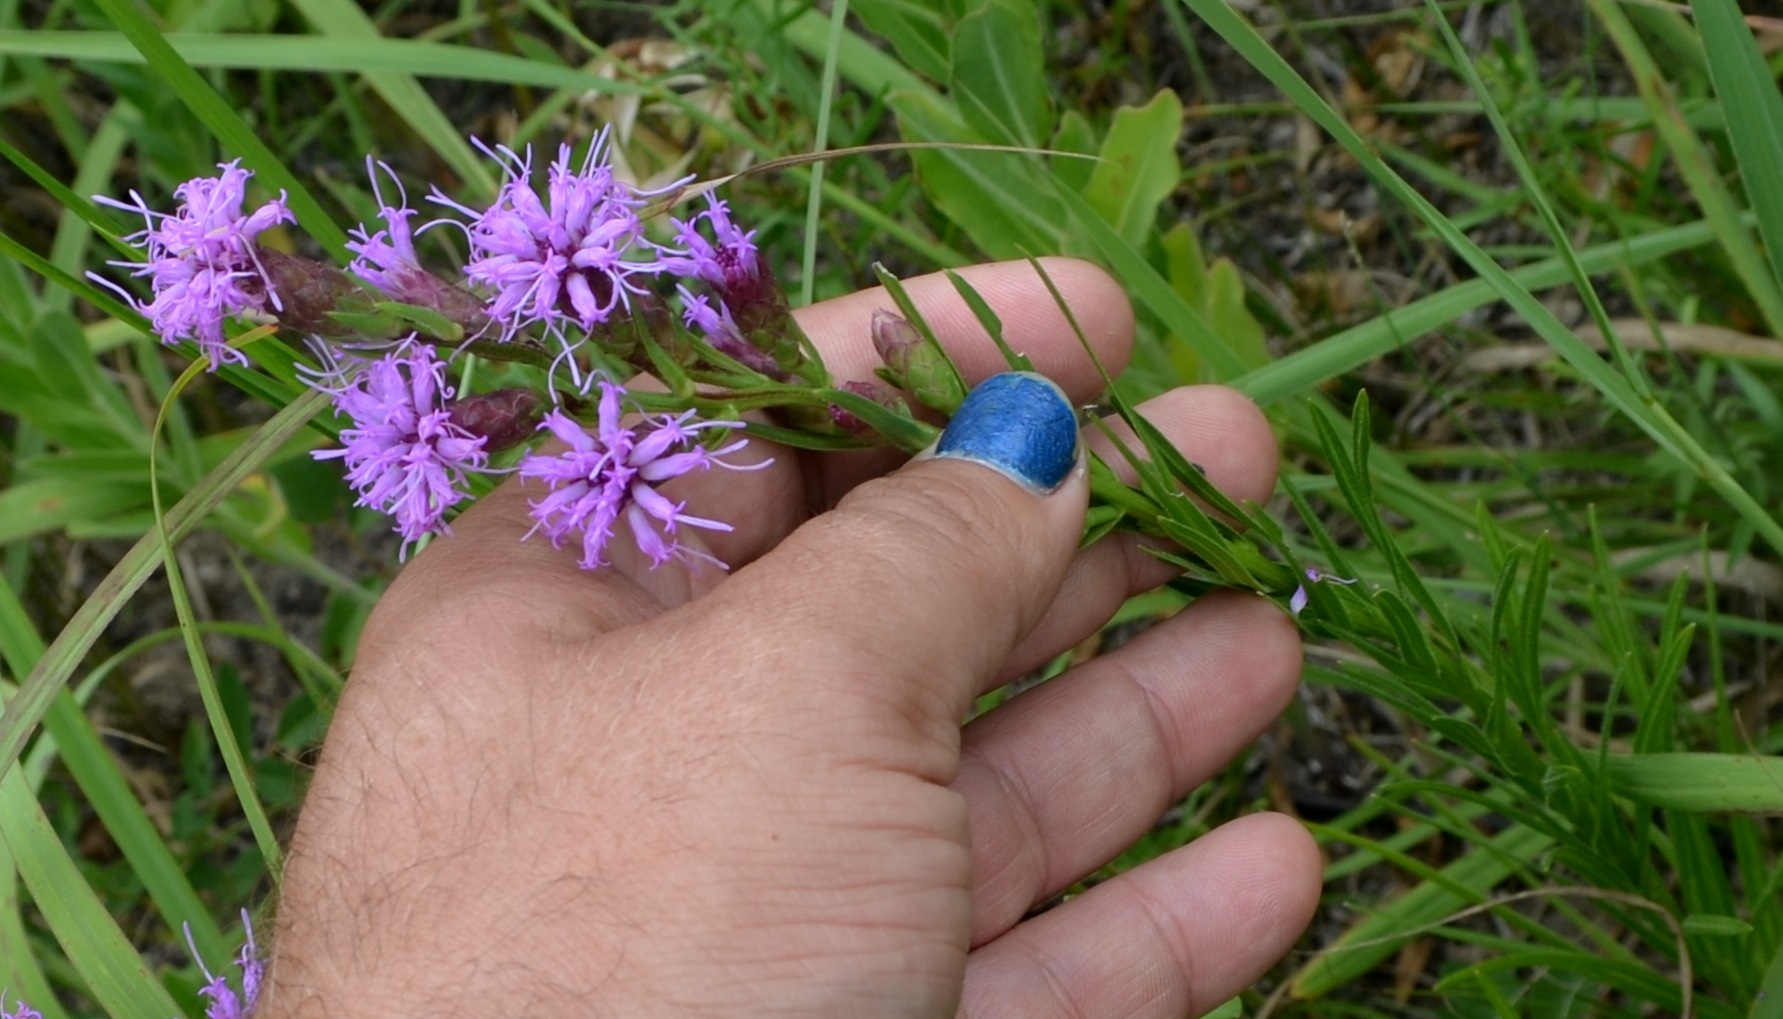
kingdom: Plantae
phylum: Tracheophyta
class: Magnoliopsida
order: Asterales
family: Asteraceae
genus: Liatris
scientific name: Liatris cylindracea
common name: Few-head blazingstar
